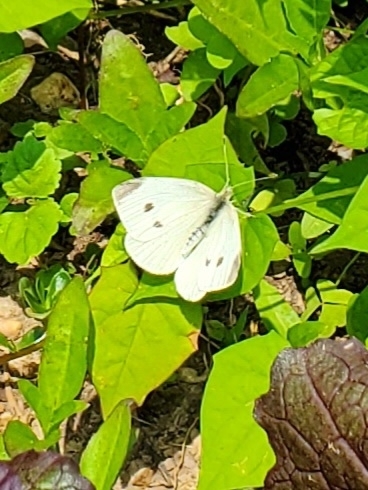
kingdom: Animalia
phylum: Arthropoda
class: Insecta
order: Lepidoptera
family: Pieridae
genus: Pieris
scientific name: Pieris rapae
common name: Small white
